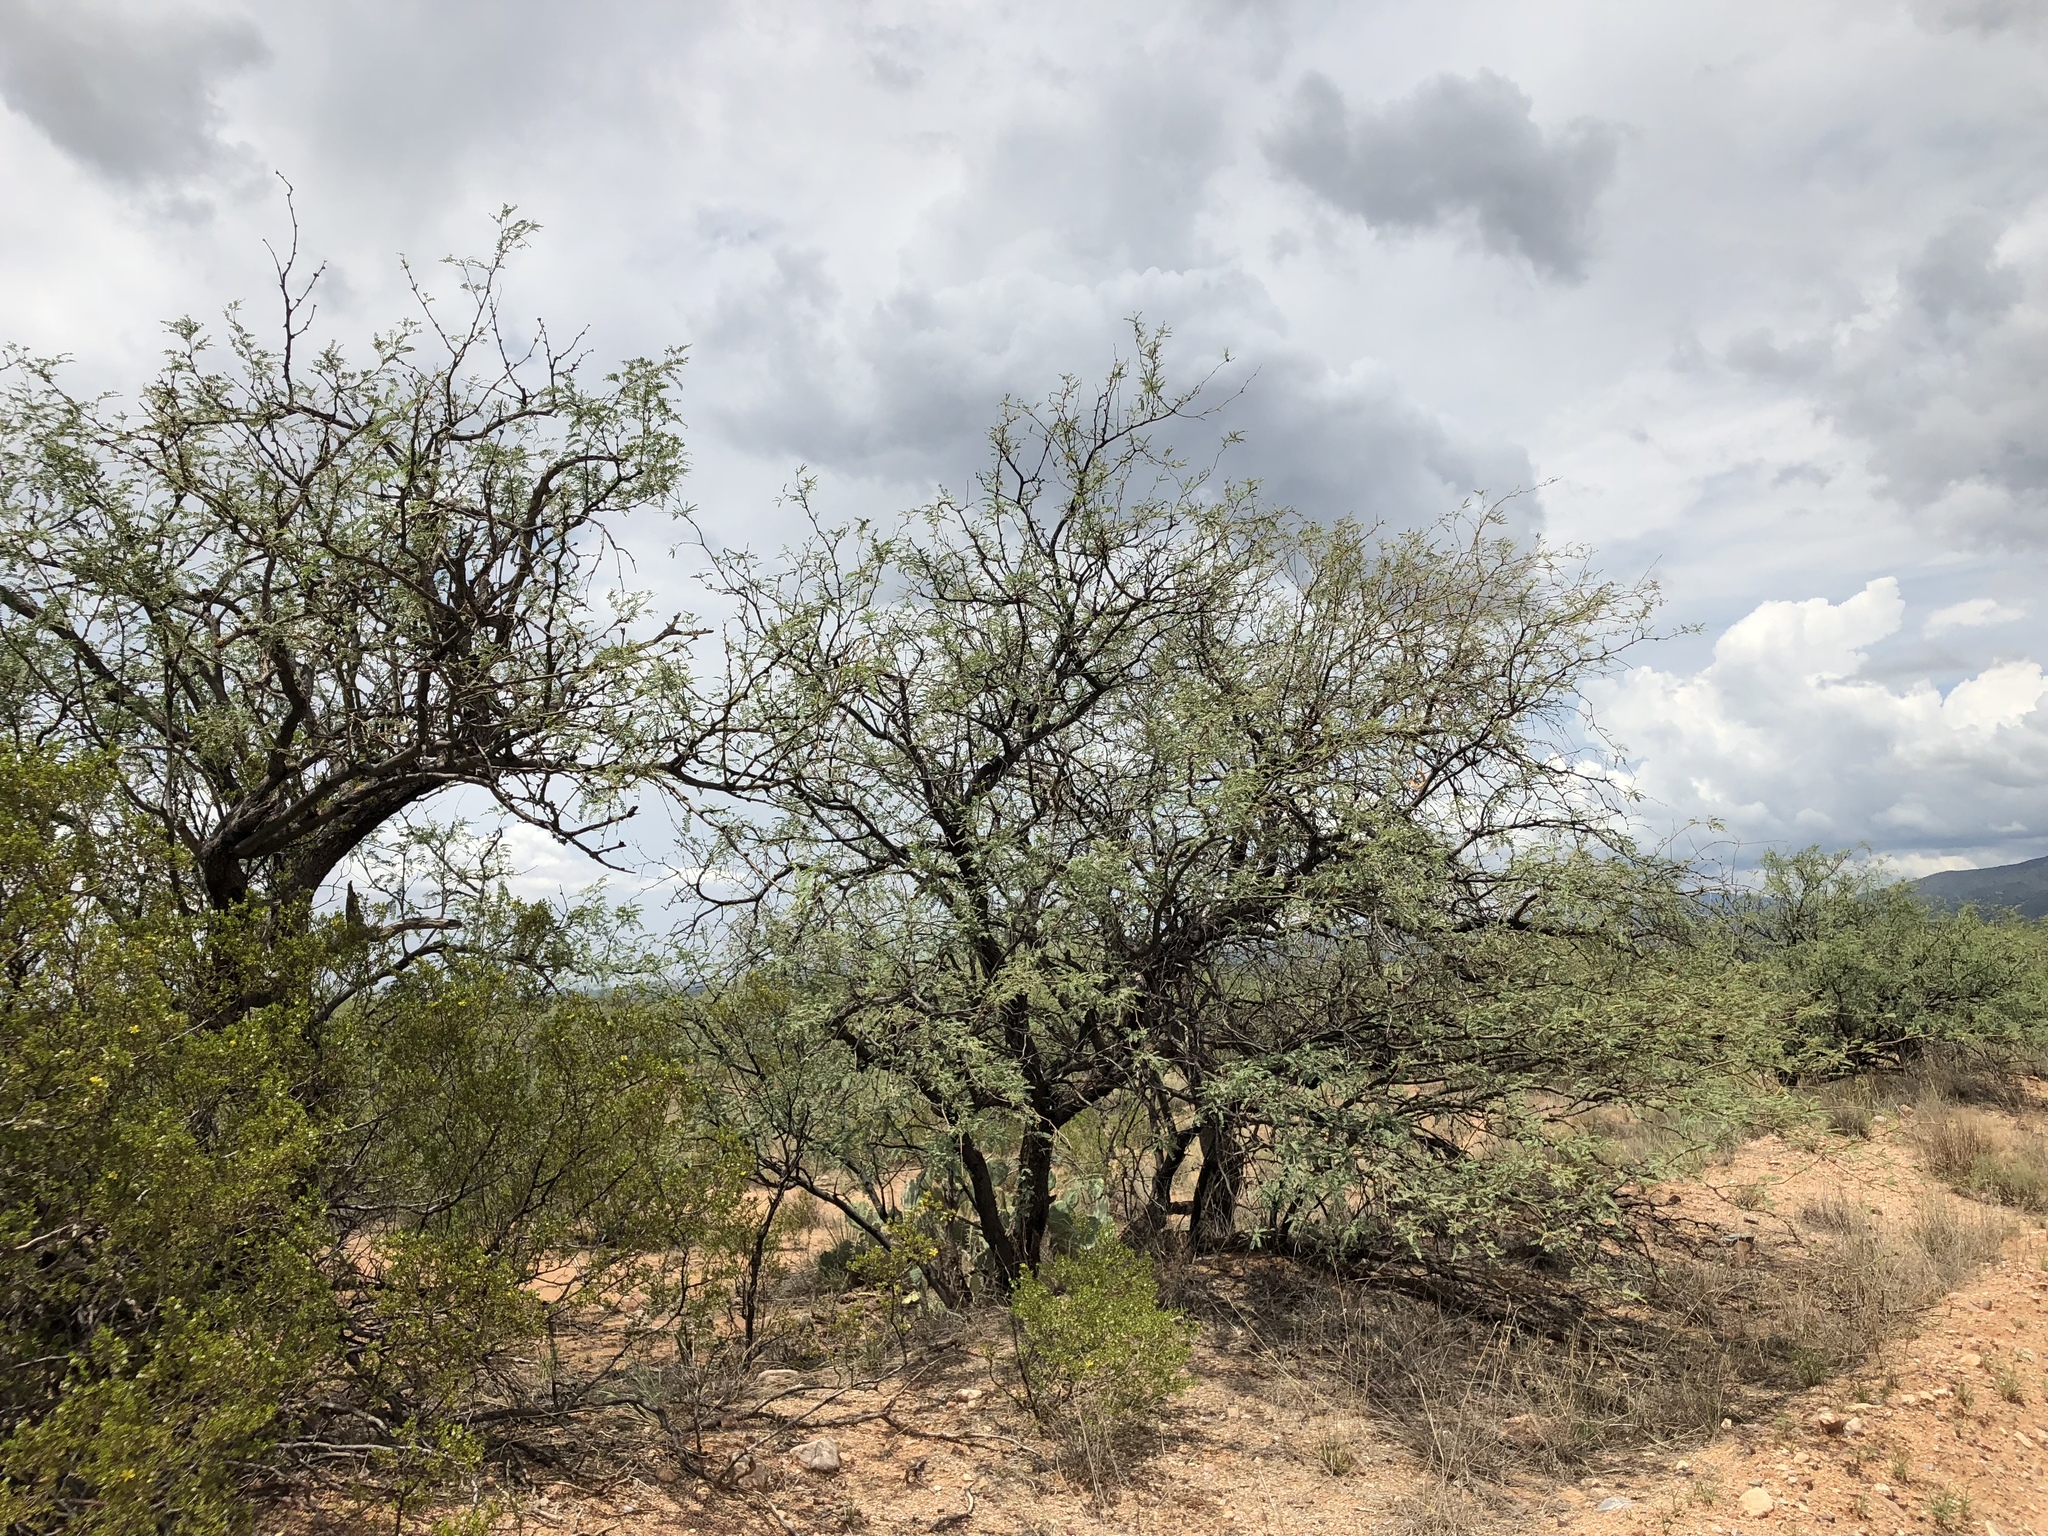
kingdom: Plantae
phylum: Tracheophyta
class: Magnoliopsida
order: Fabales
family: Fabaceae
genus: Prosopis
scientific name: Prosopis velutina
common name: Velvet mesquite
